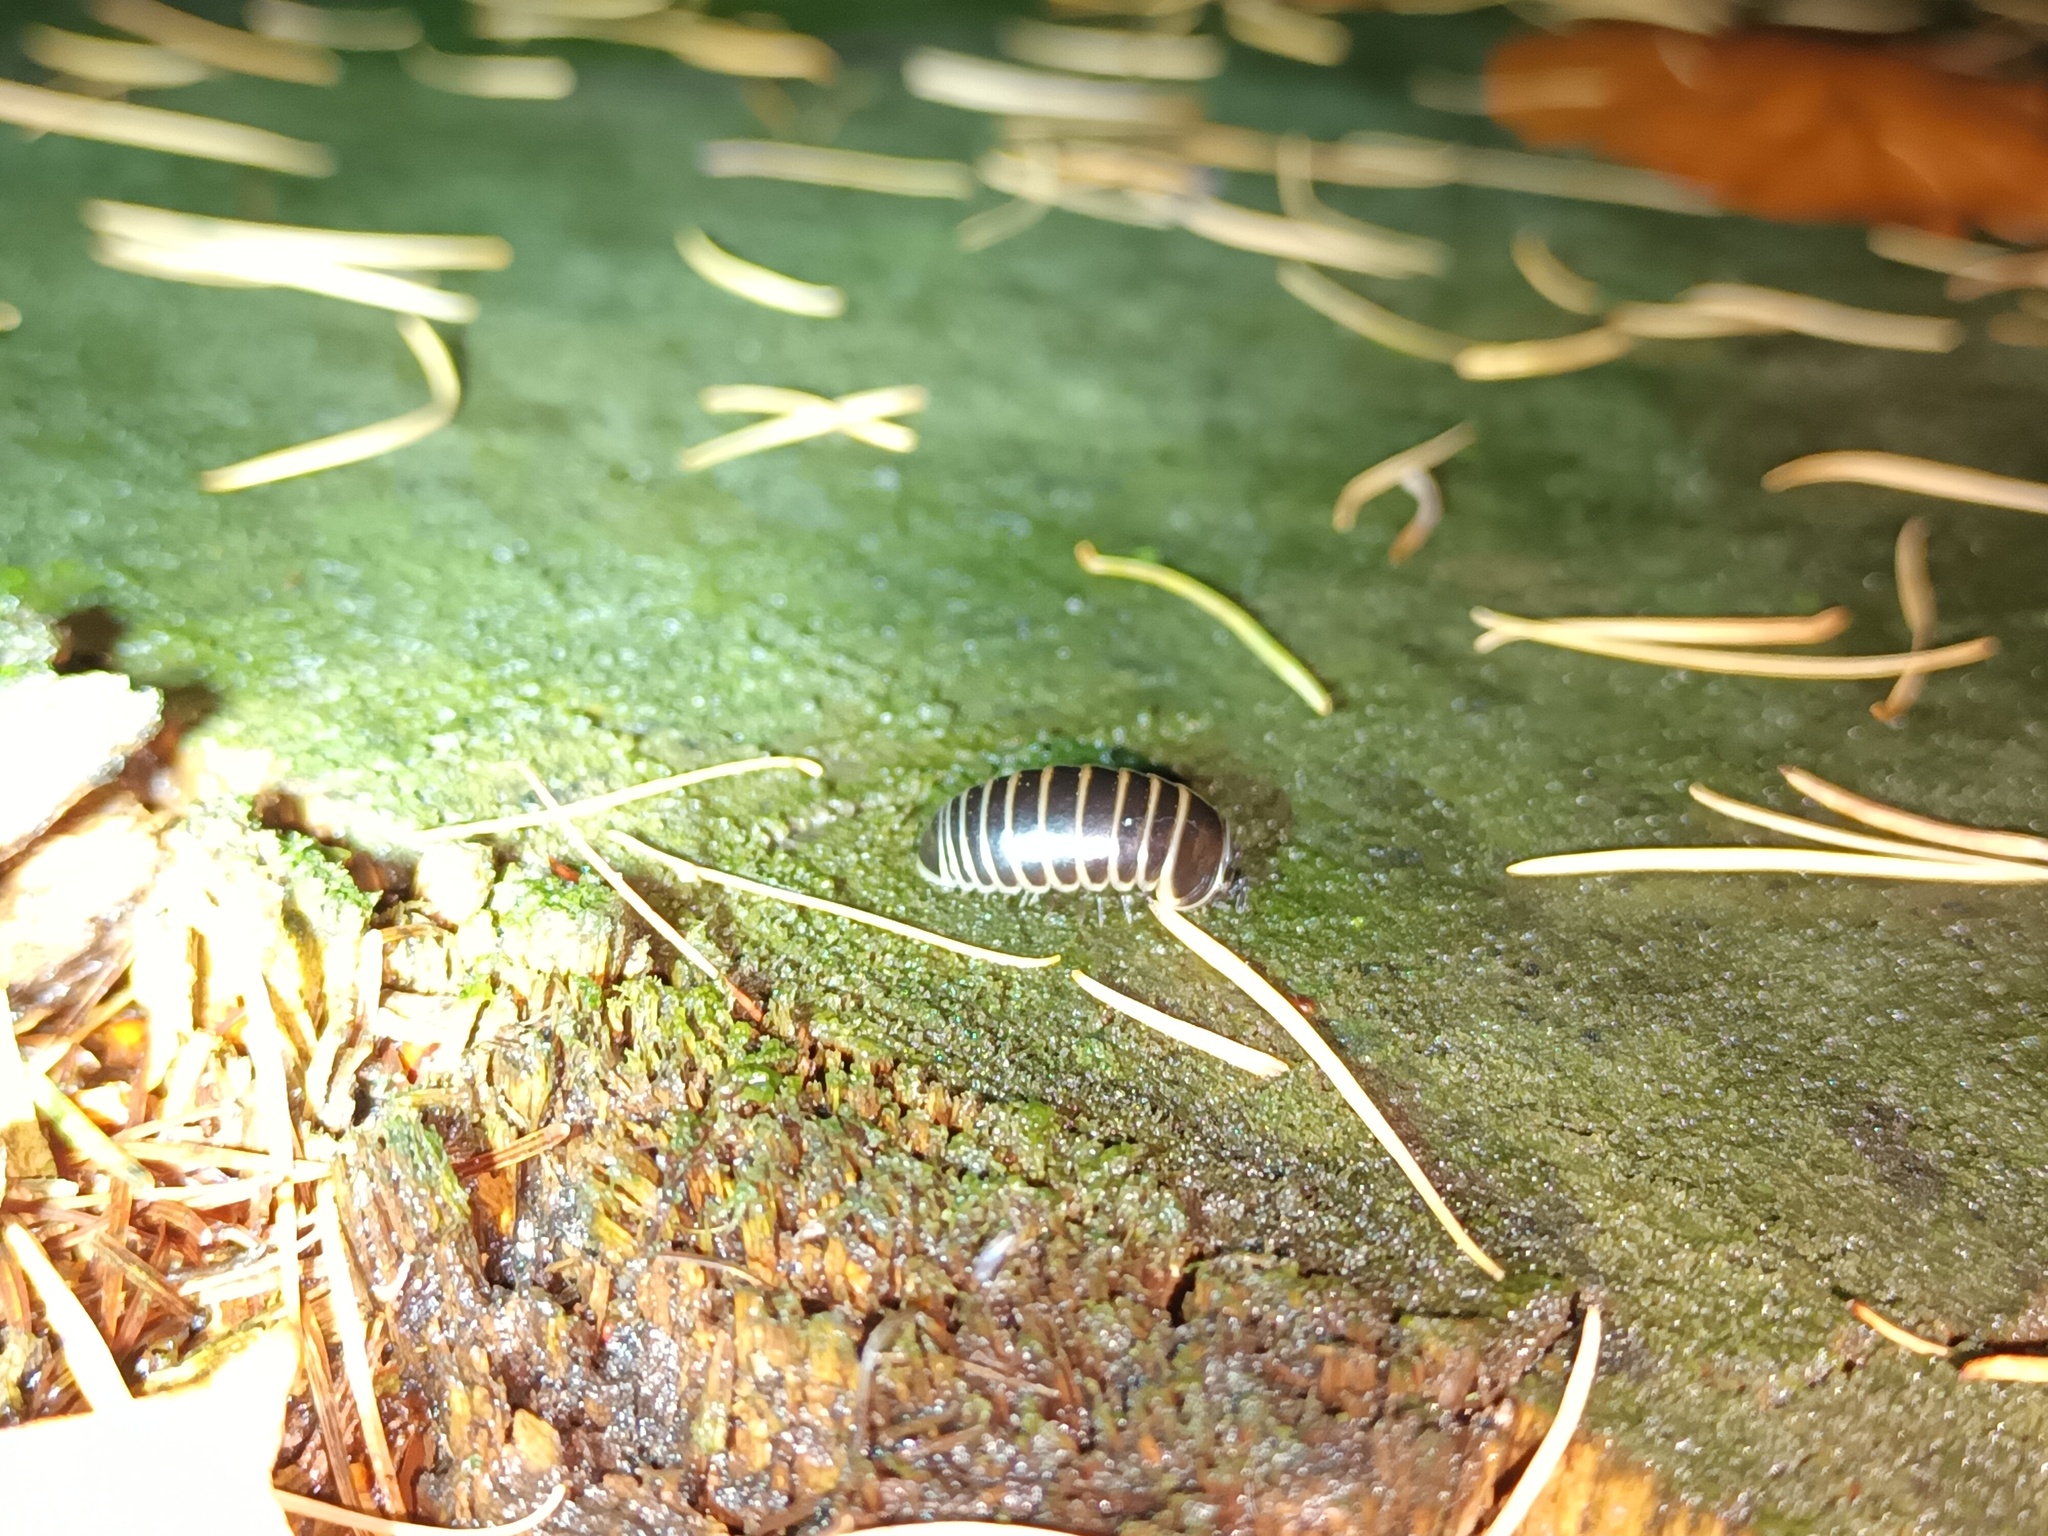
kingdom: Animalia
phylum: Arthropoda
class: Diplopoda
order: Glomerida
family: Glomeridae
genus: Glomeris
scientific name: Glomeris marginata
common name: Bordered pill millipede
